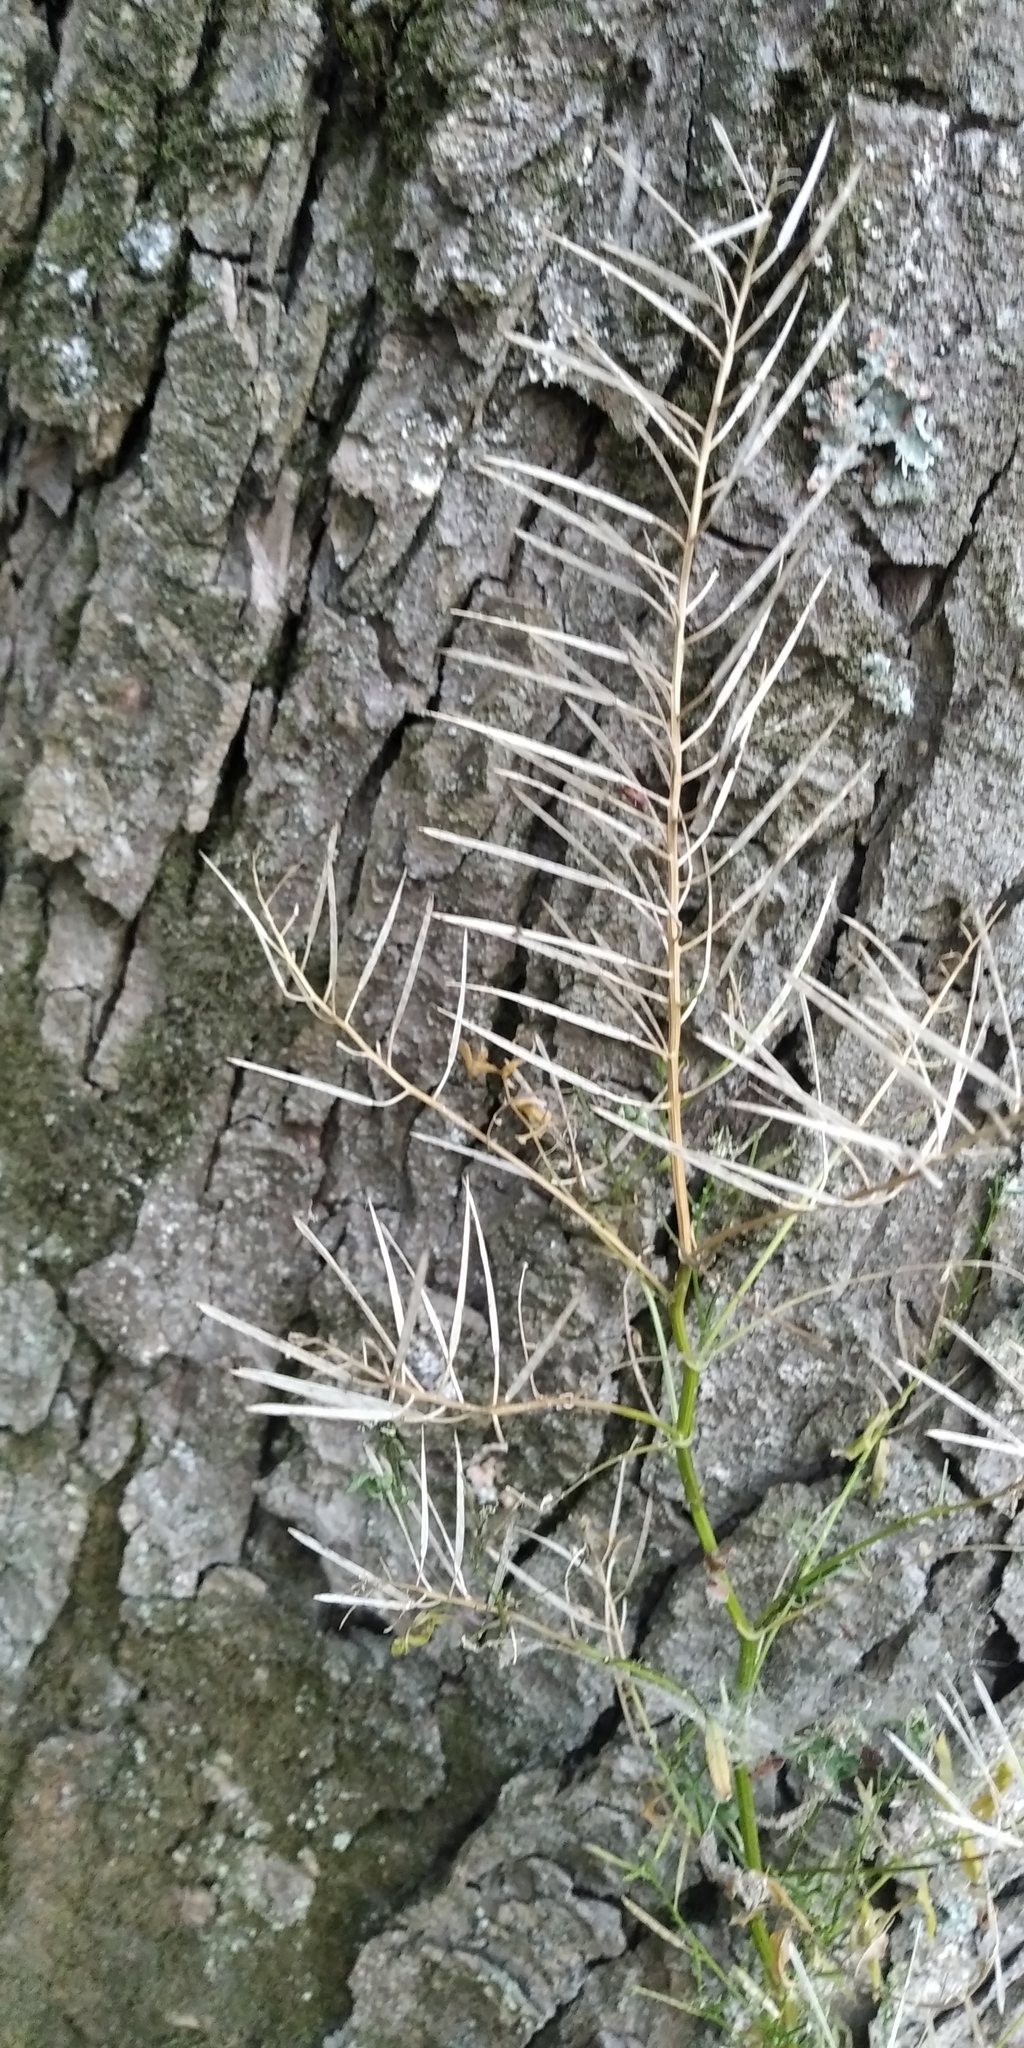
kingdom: Plantae
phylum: Tracheophyta
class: Magnoliopsida
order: Brassicales
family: Brassicaceae
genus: Cardamine
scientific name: Cardamine impatiens
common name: Narrow-leaved bitter-cress
